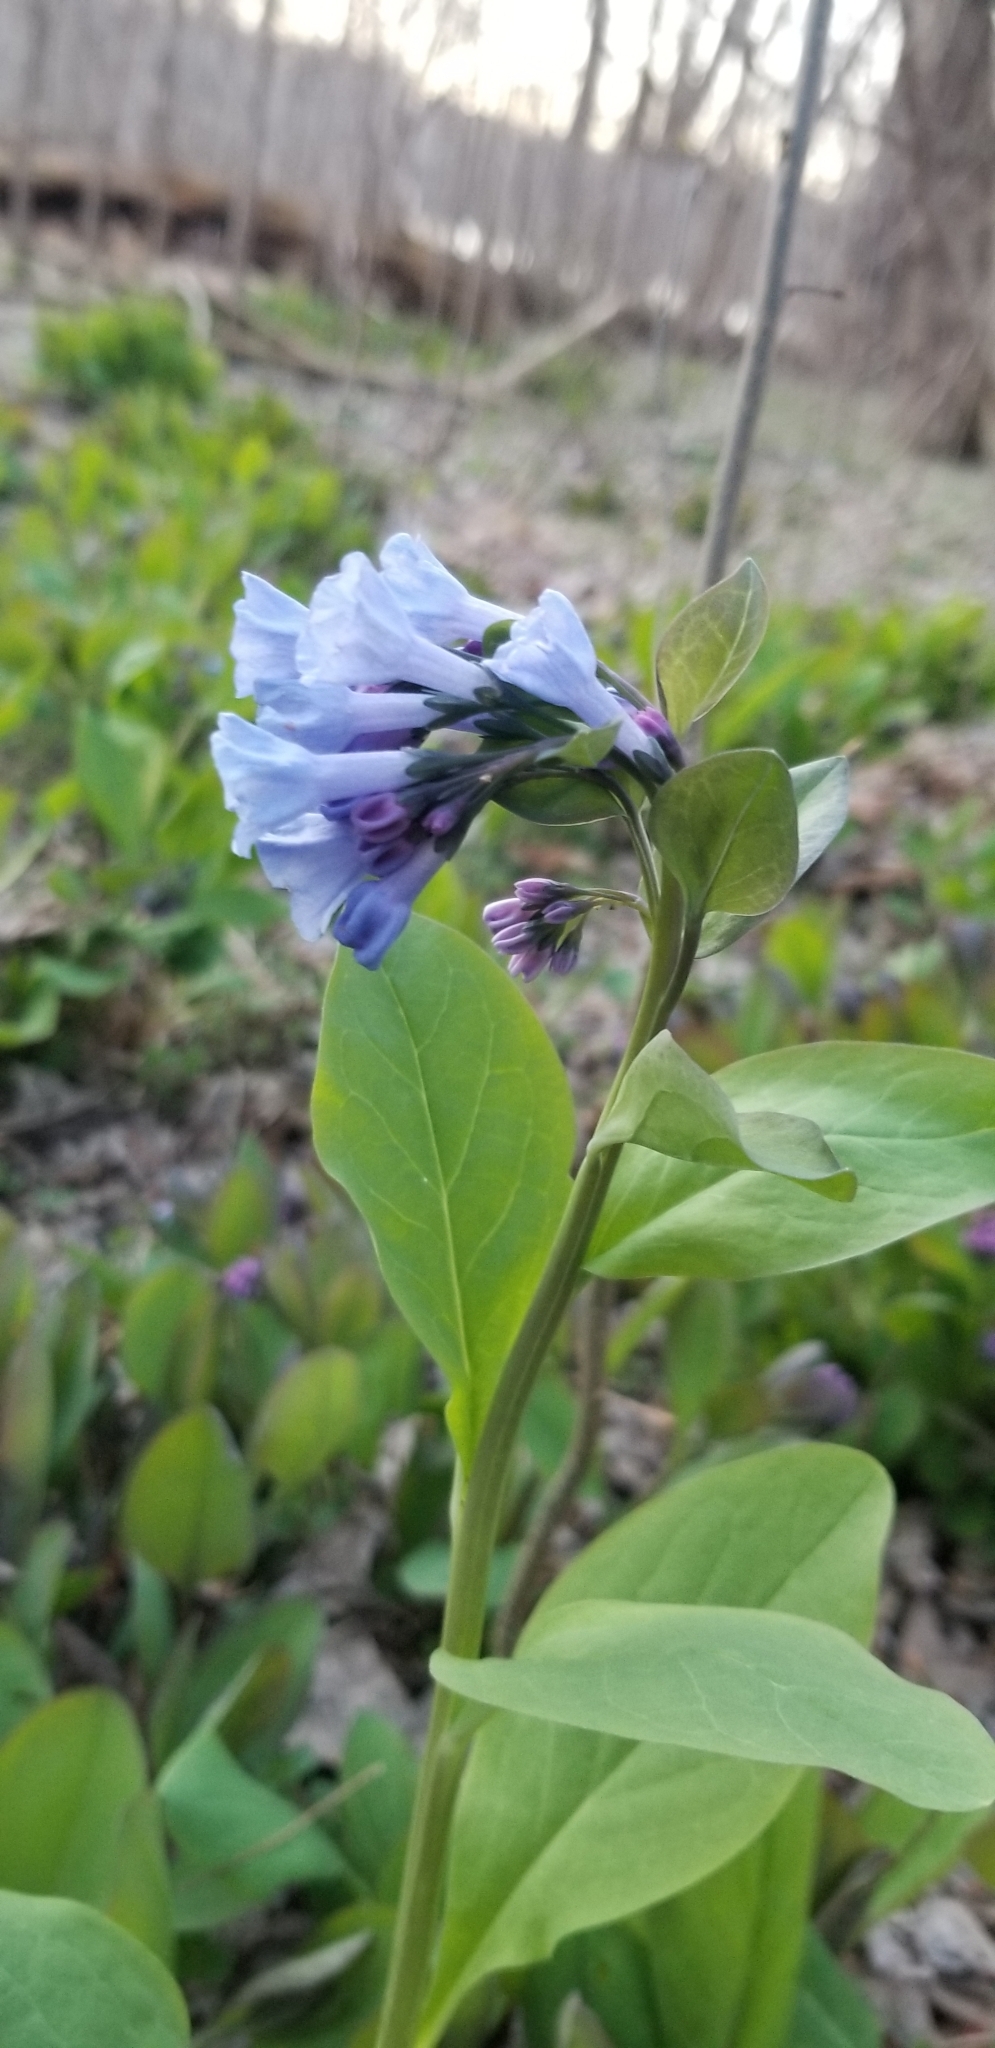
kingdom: Plantae
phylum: Tracheophyta
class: Magnoliopsida
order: Boraginales
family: Boraginaceae
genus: Mertensia
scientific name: Mertensia virginica
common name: Virginia bluebells
